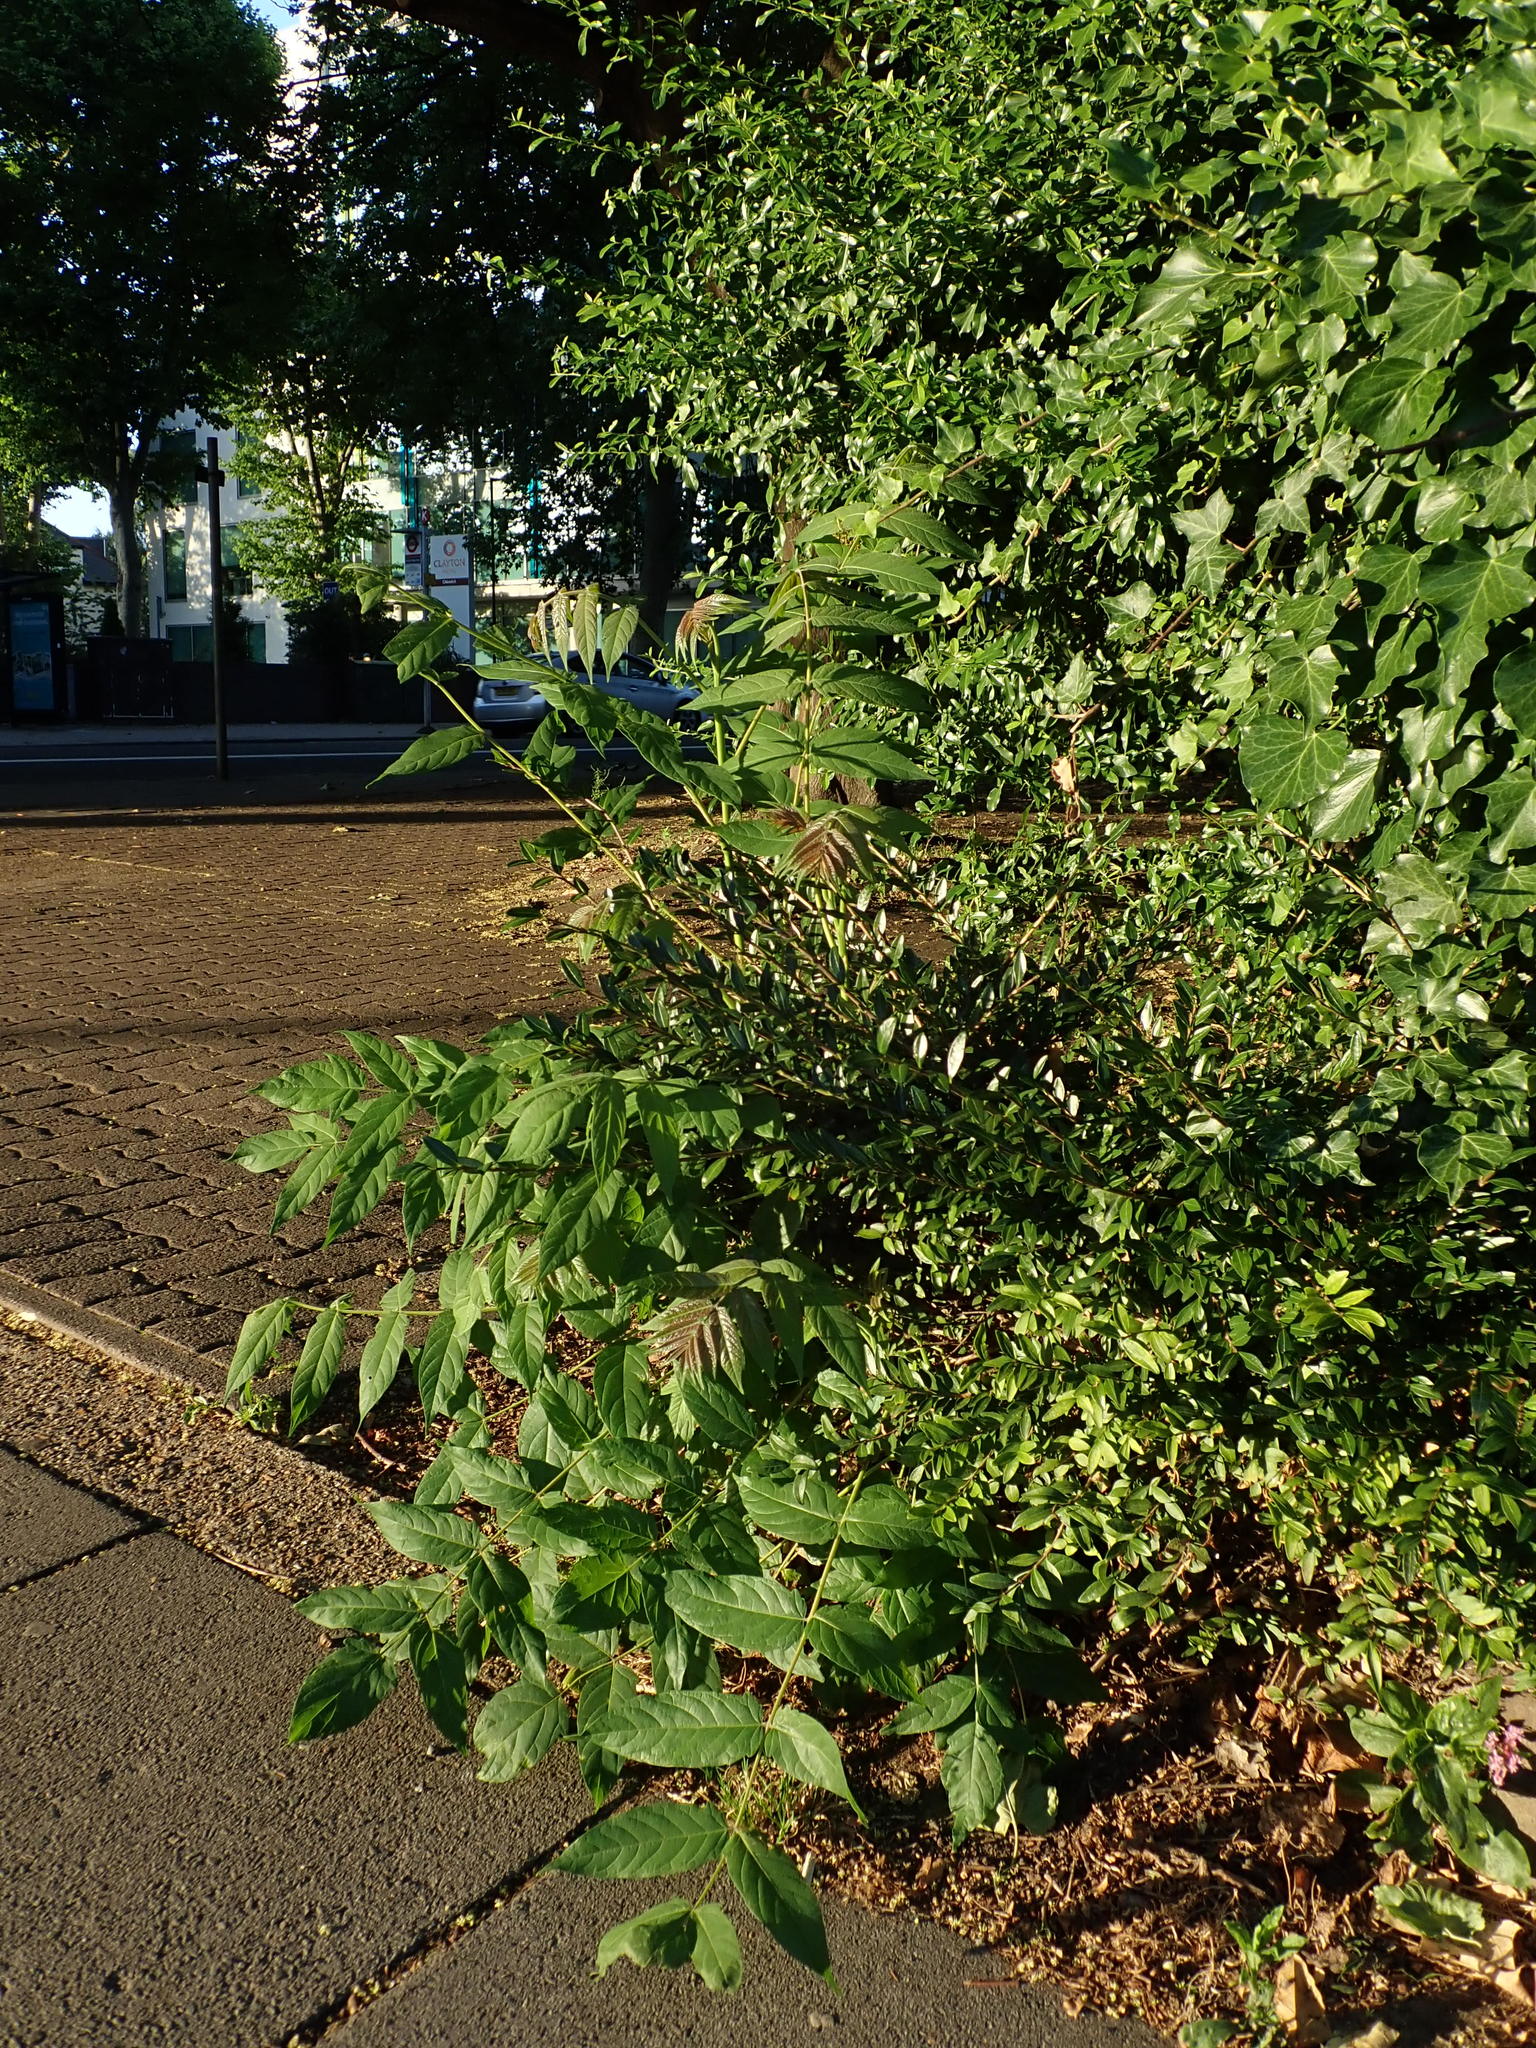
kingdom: Plantae
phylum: Tracheophyta
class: Magnoliopsida
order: Sapindales
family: Simaroubaceae
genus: Ailanthus
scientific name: Ailanthus altissima
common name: Tree-of-heaven
